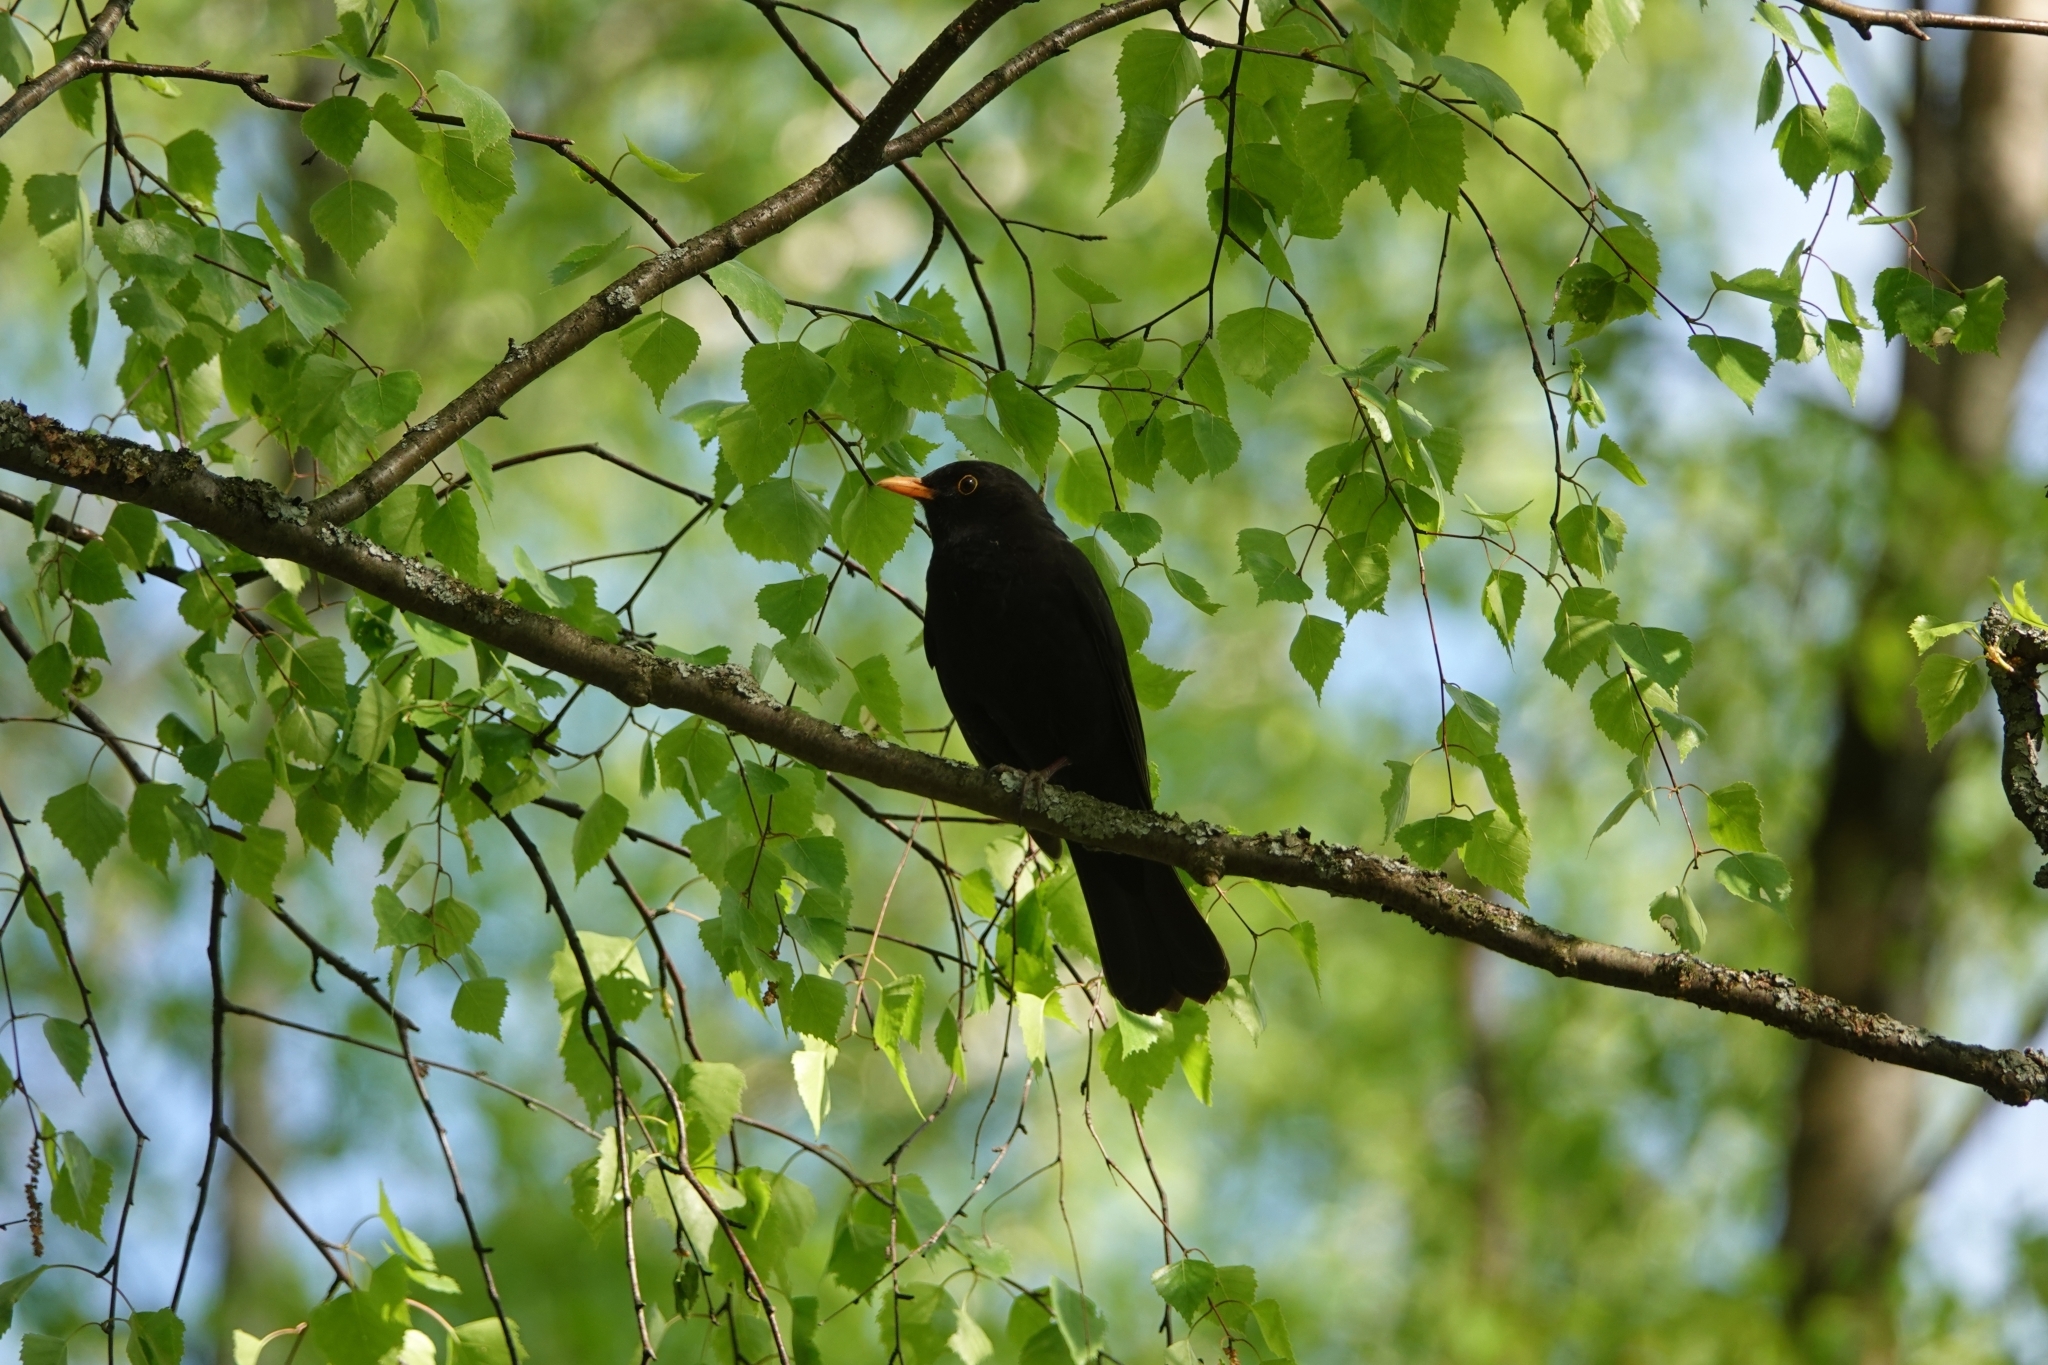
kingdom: Animalia
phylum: Chordata
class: Aves
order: Passeriformes
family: Turdidae
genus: Turdus
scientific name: Turdus merula
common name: Common blackbird
